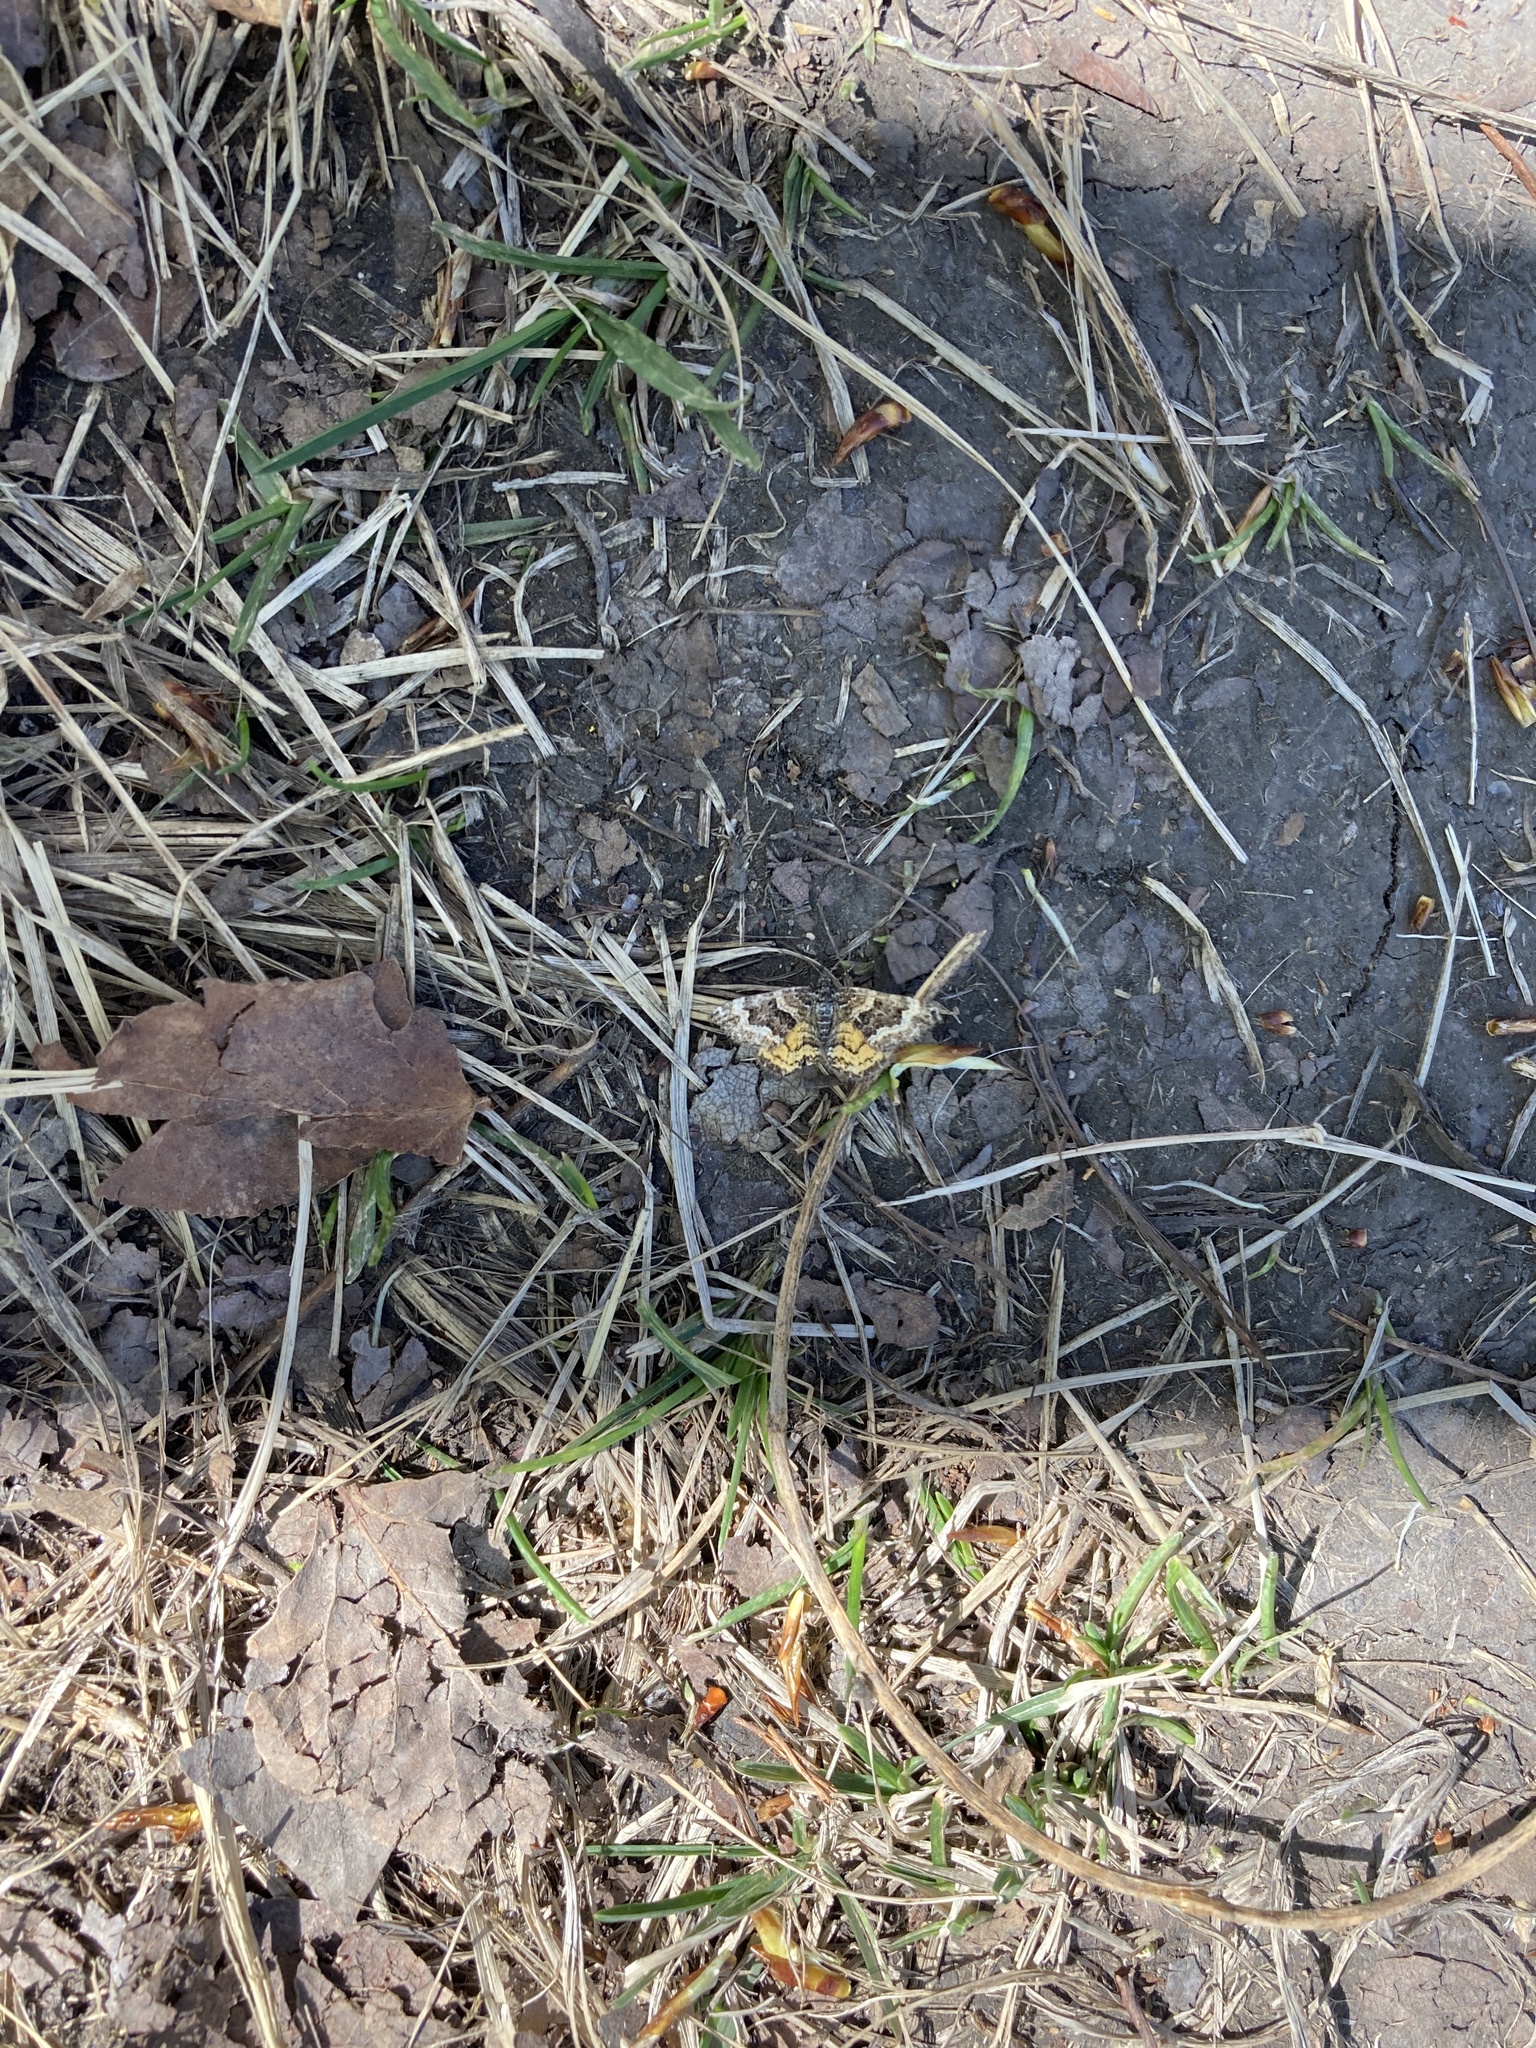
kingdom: Animalia
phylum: Arthropoda
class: Insecta
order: Lepidoptera
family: Geometridae
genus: Epirrhoe
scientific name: Epirrhoe plebeculata
